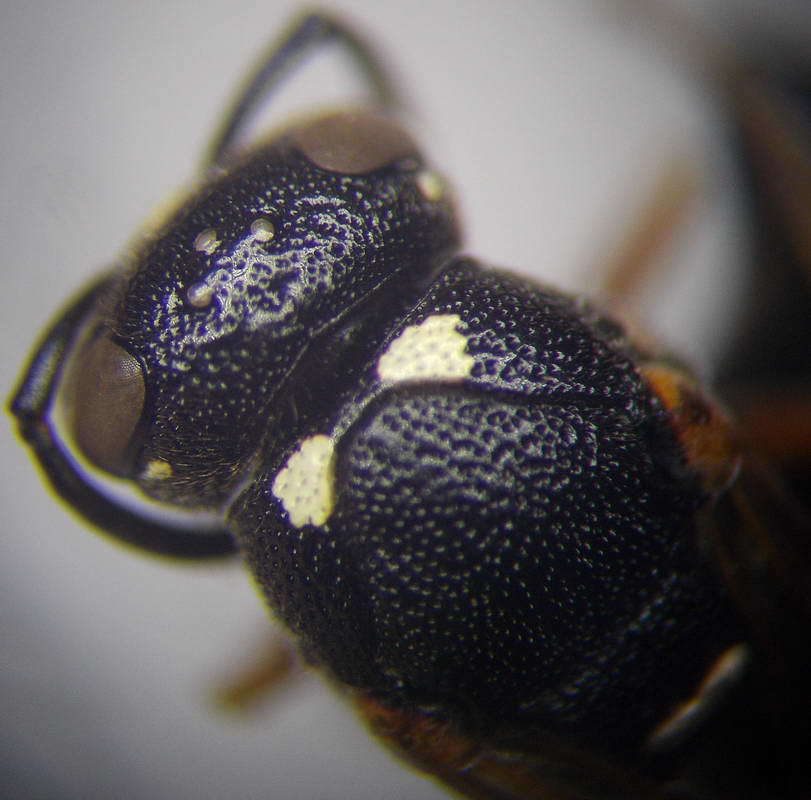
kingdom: Animalia
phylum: Arthropoda
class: Insecta
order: Hymenoptera
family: Eumenidae
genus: Rhynchalastor
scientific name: Rhynchalastor punctifrons
